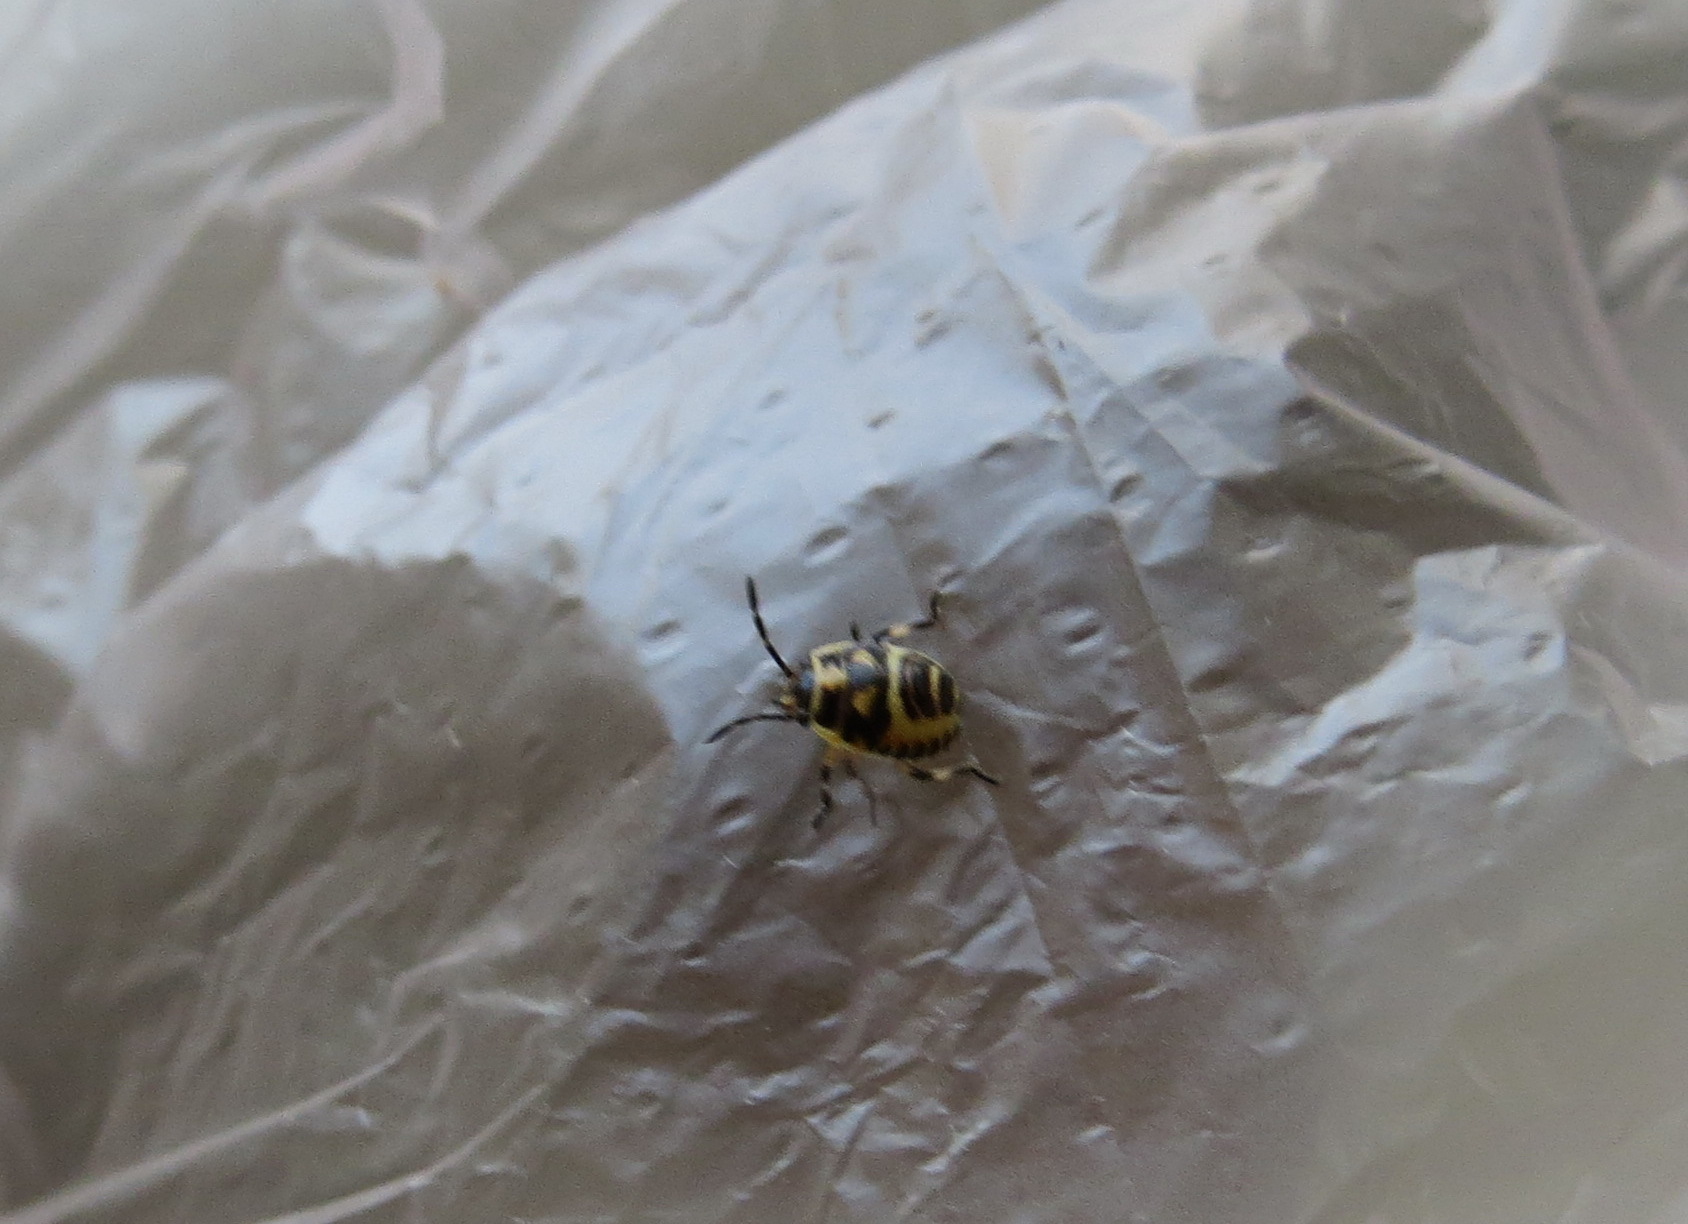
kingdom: Animalia
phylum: Arthropoda
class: Insecta
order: Hemiptera
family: Pentatomidae
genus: Eurydema
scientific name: Eurydema oleracea
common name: Cabbage bug
